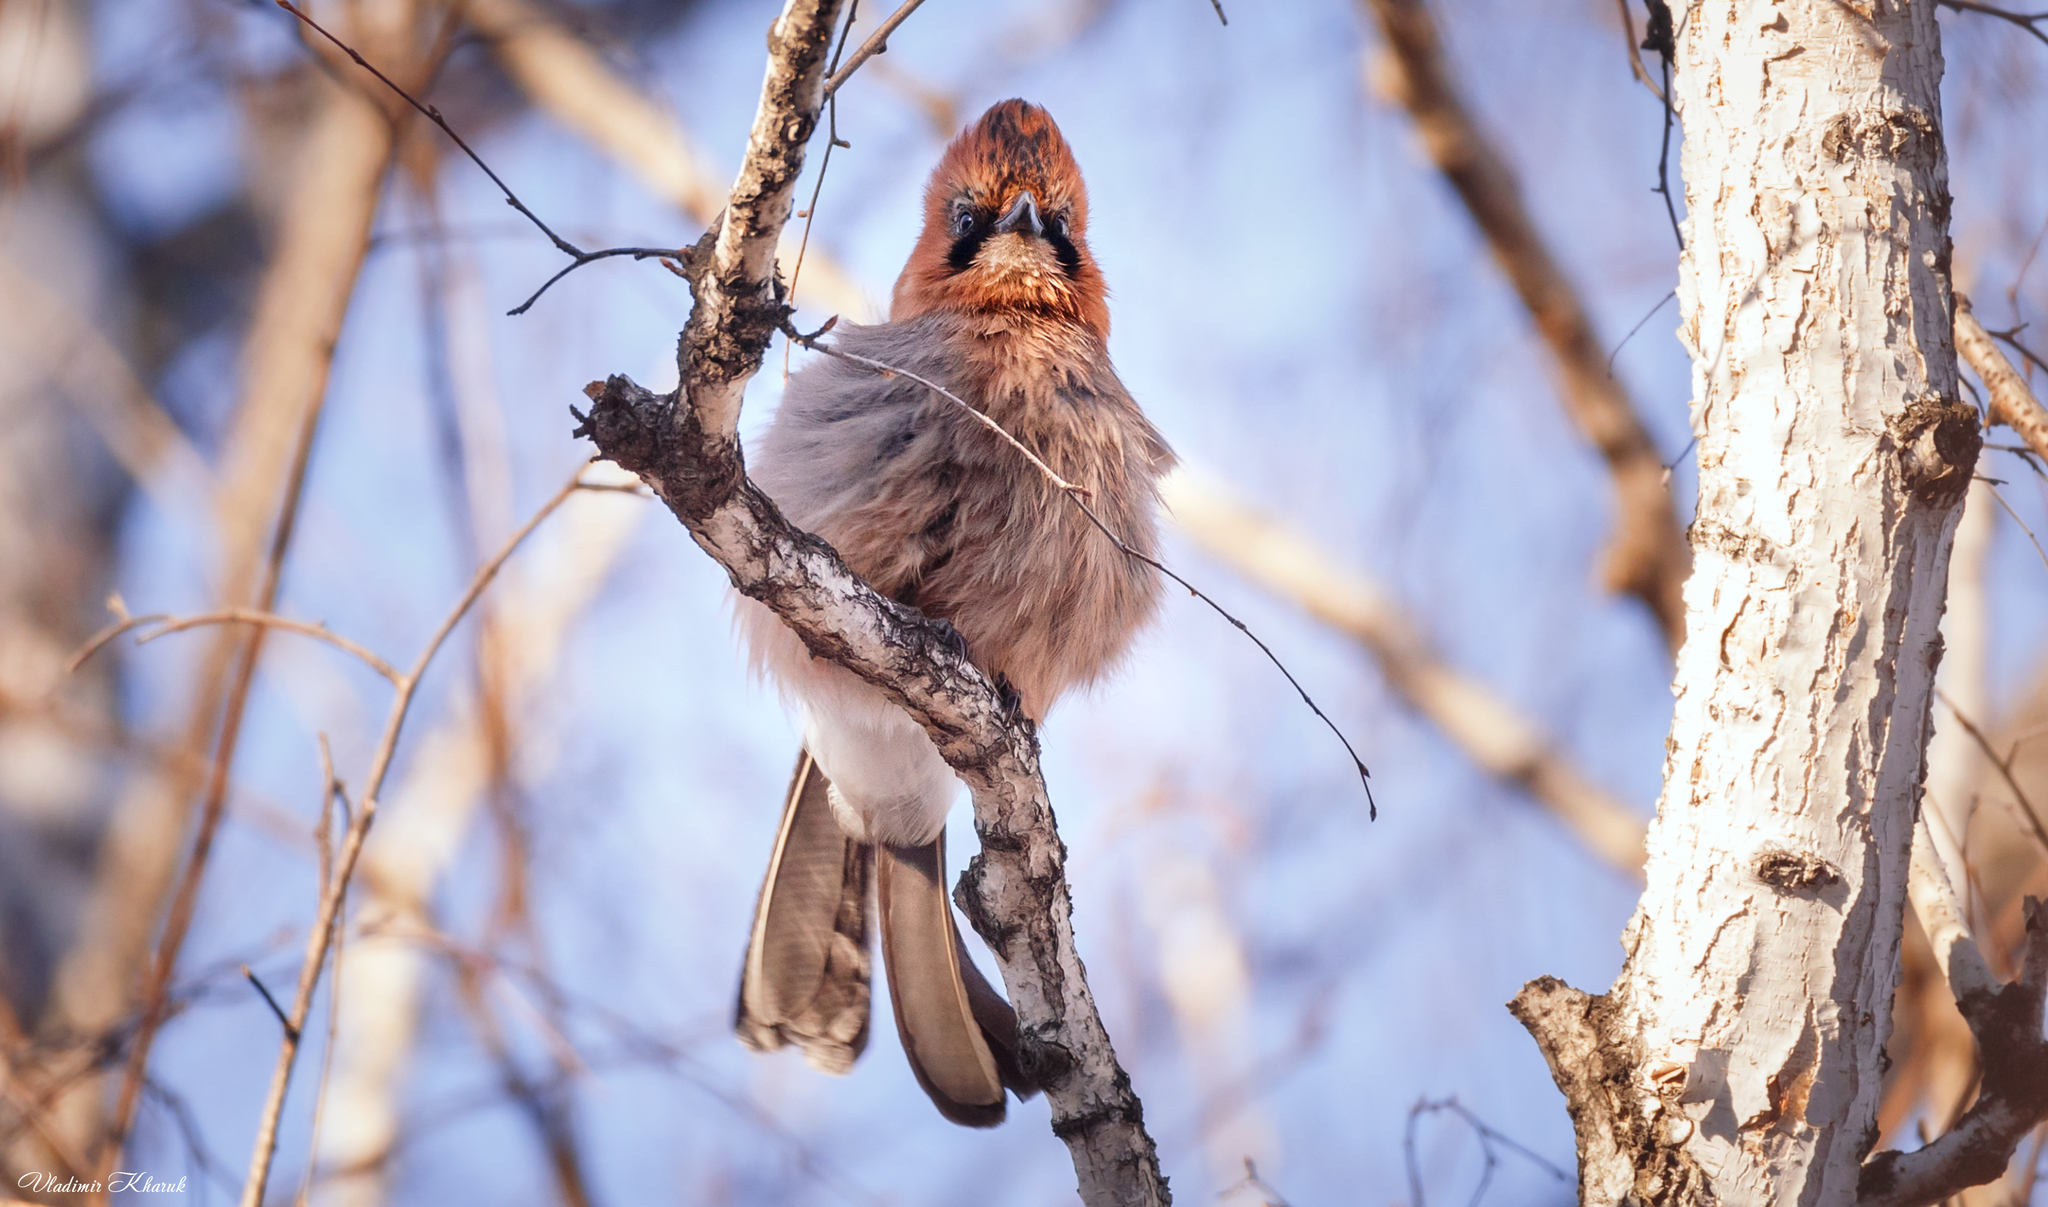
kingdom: Animalia
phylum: Chordata
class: Aves
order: Passeriformes
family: Corvidae
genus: Garrulus
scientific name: Garrulus glandarius
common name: Eurasian jay
